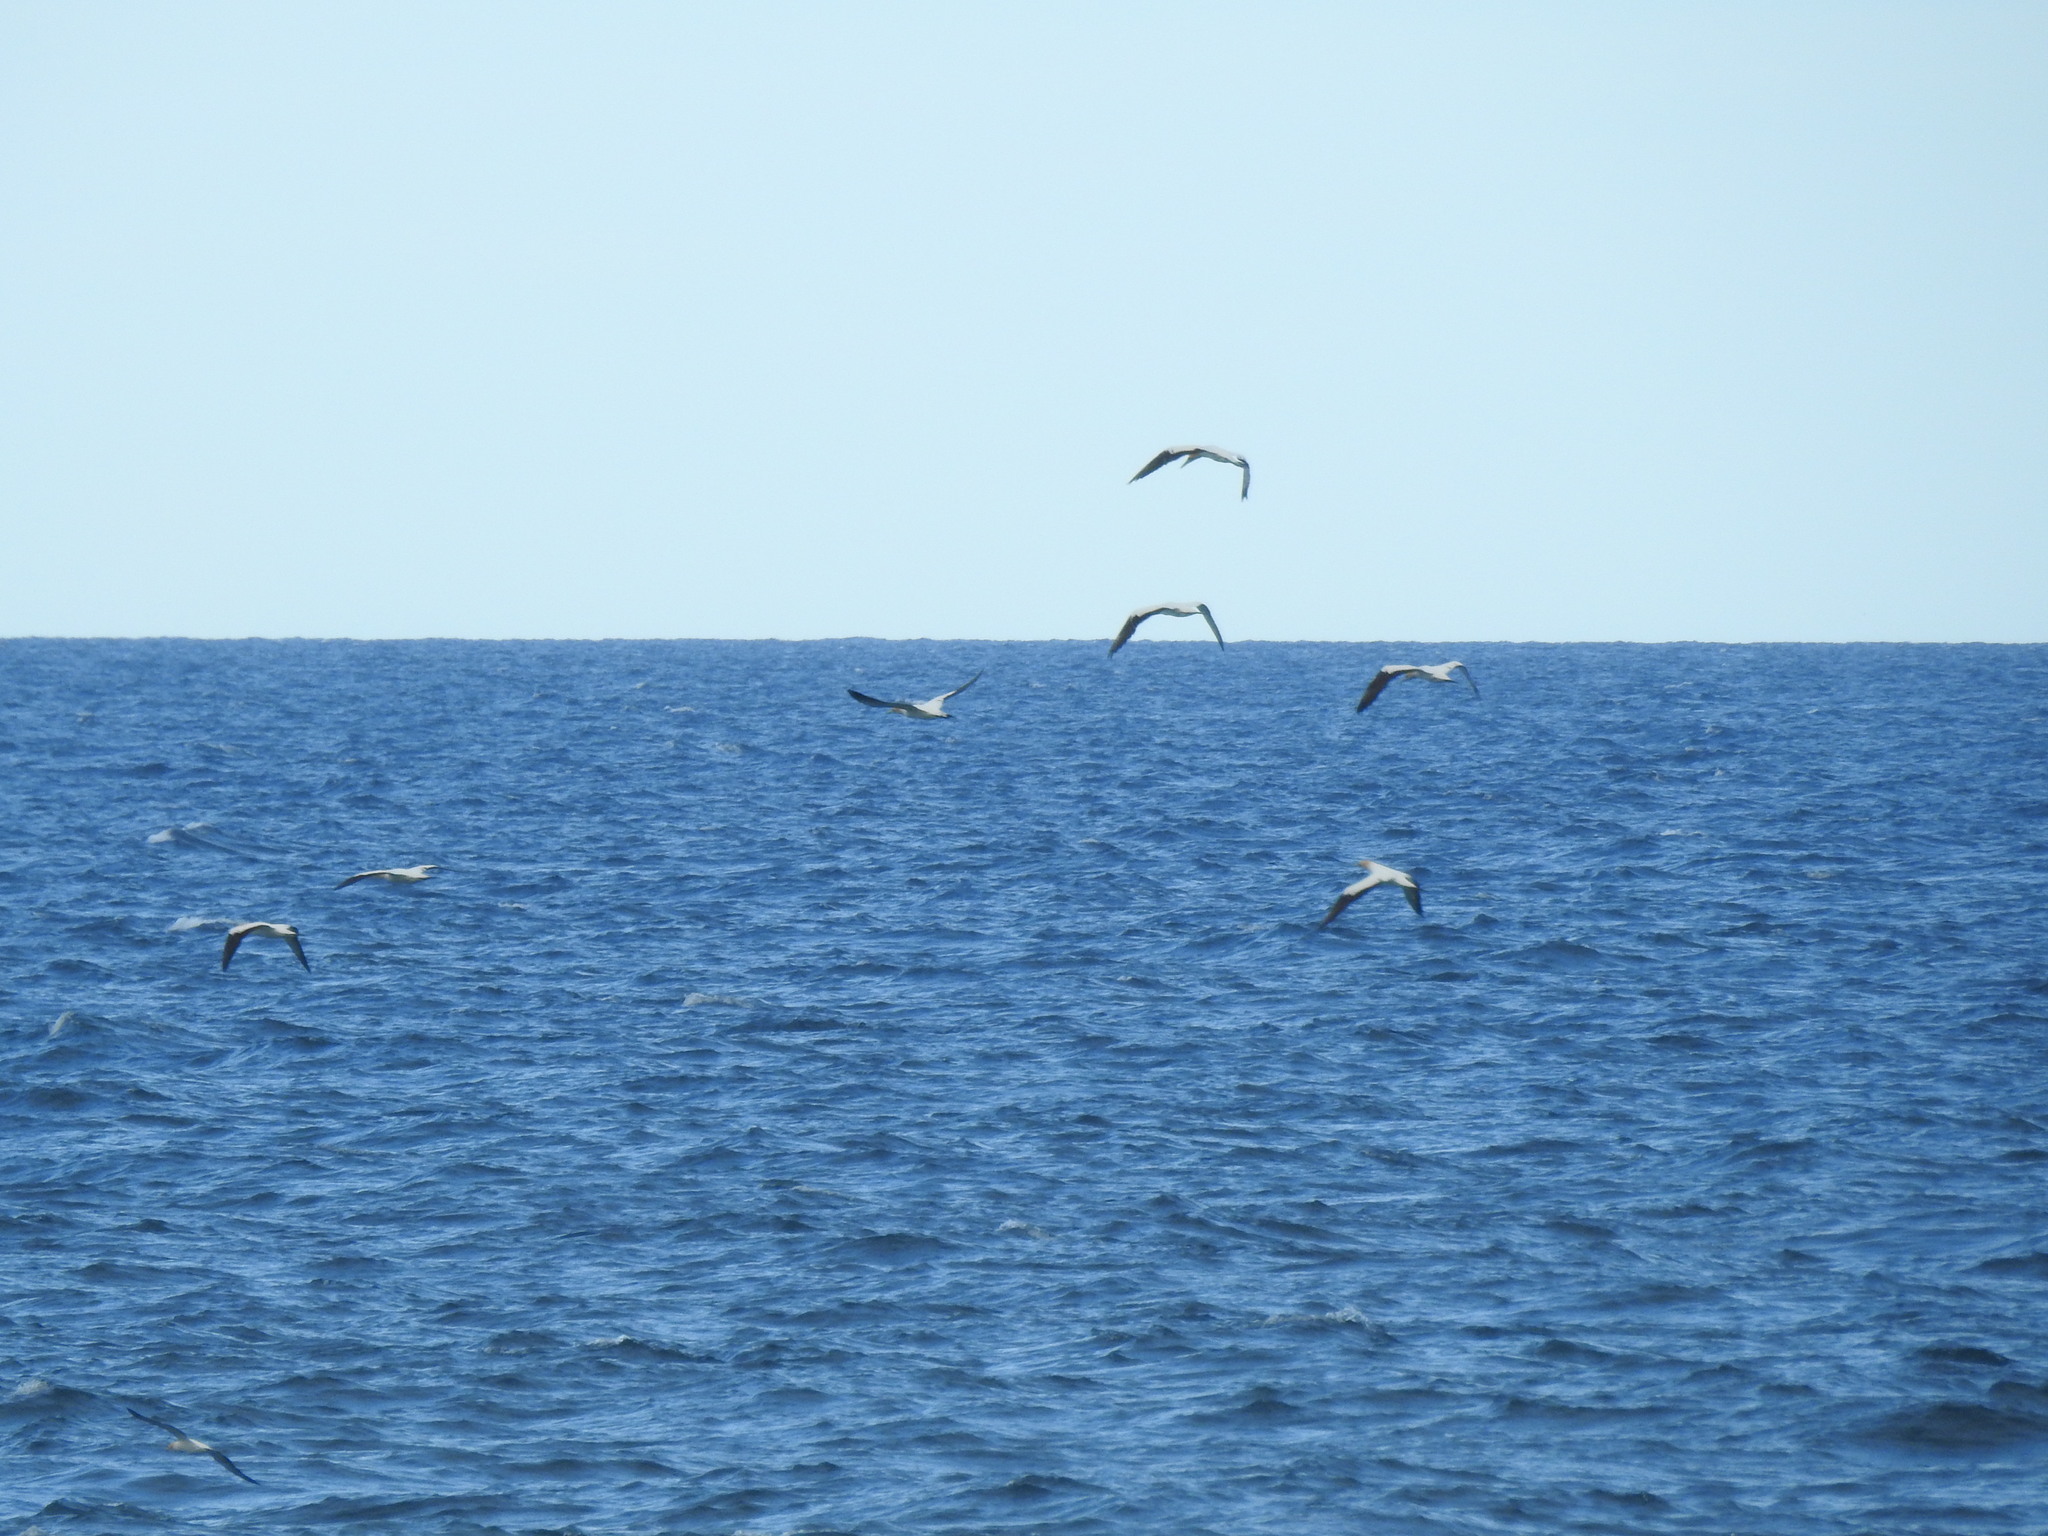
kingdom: Animalia
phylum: Chordata
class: Aves
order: Suliformes
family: Sulidae
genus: Morus
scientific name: Morus serrator
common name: Australasian gannet
